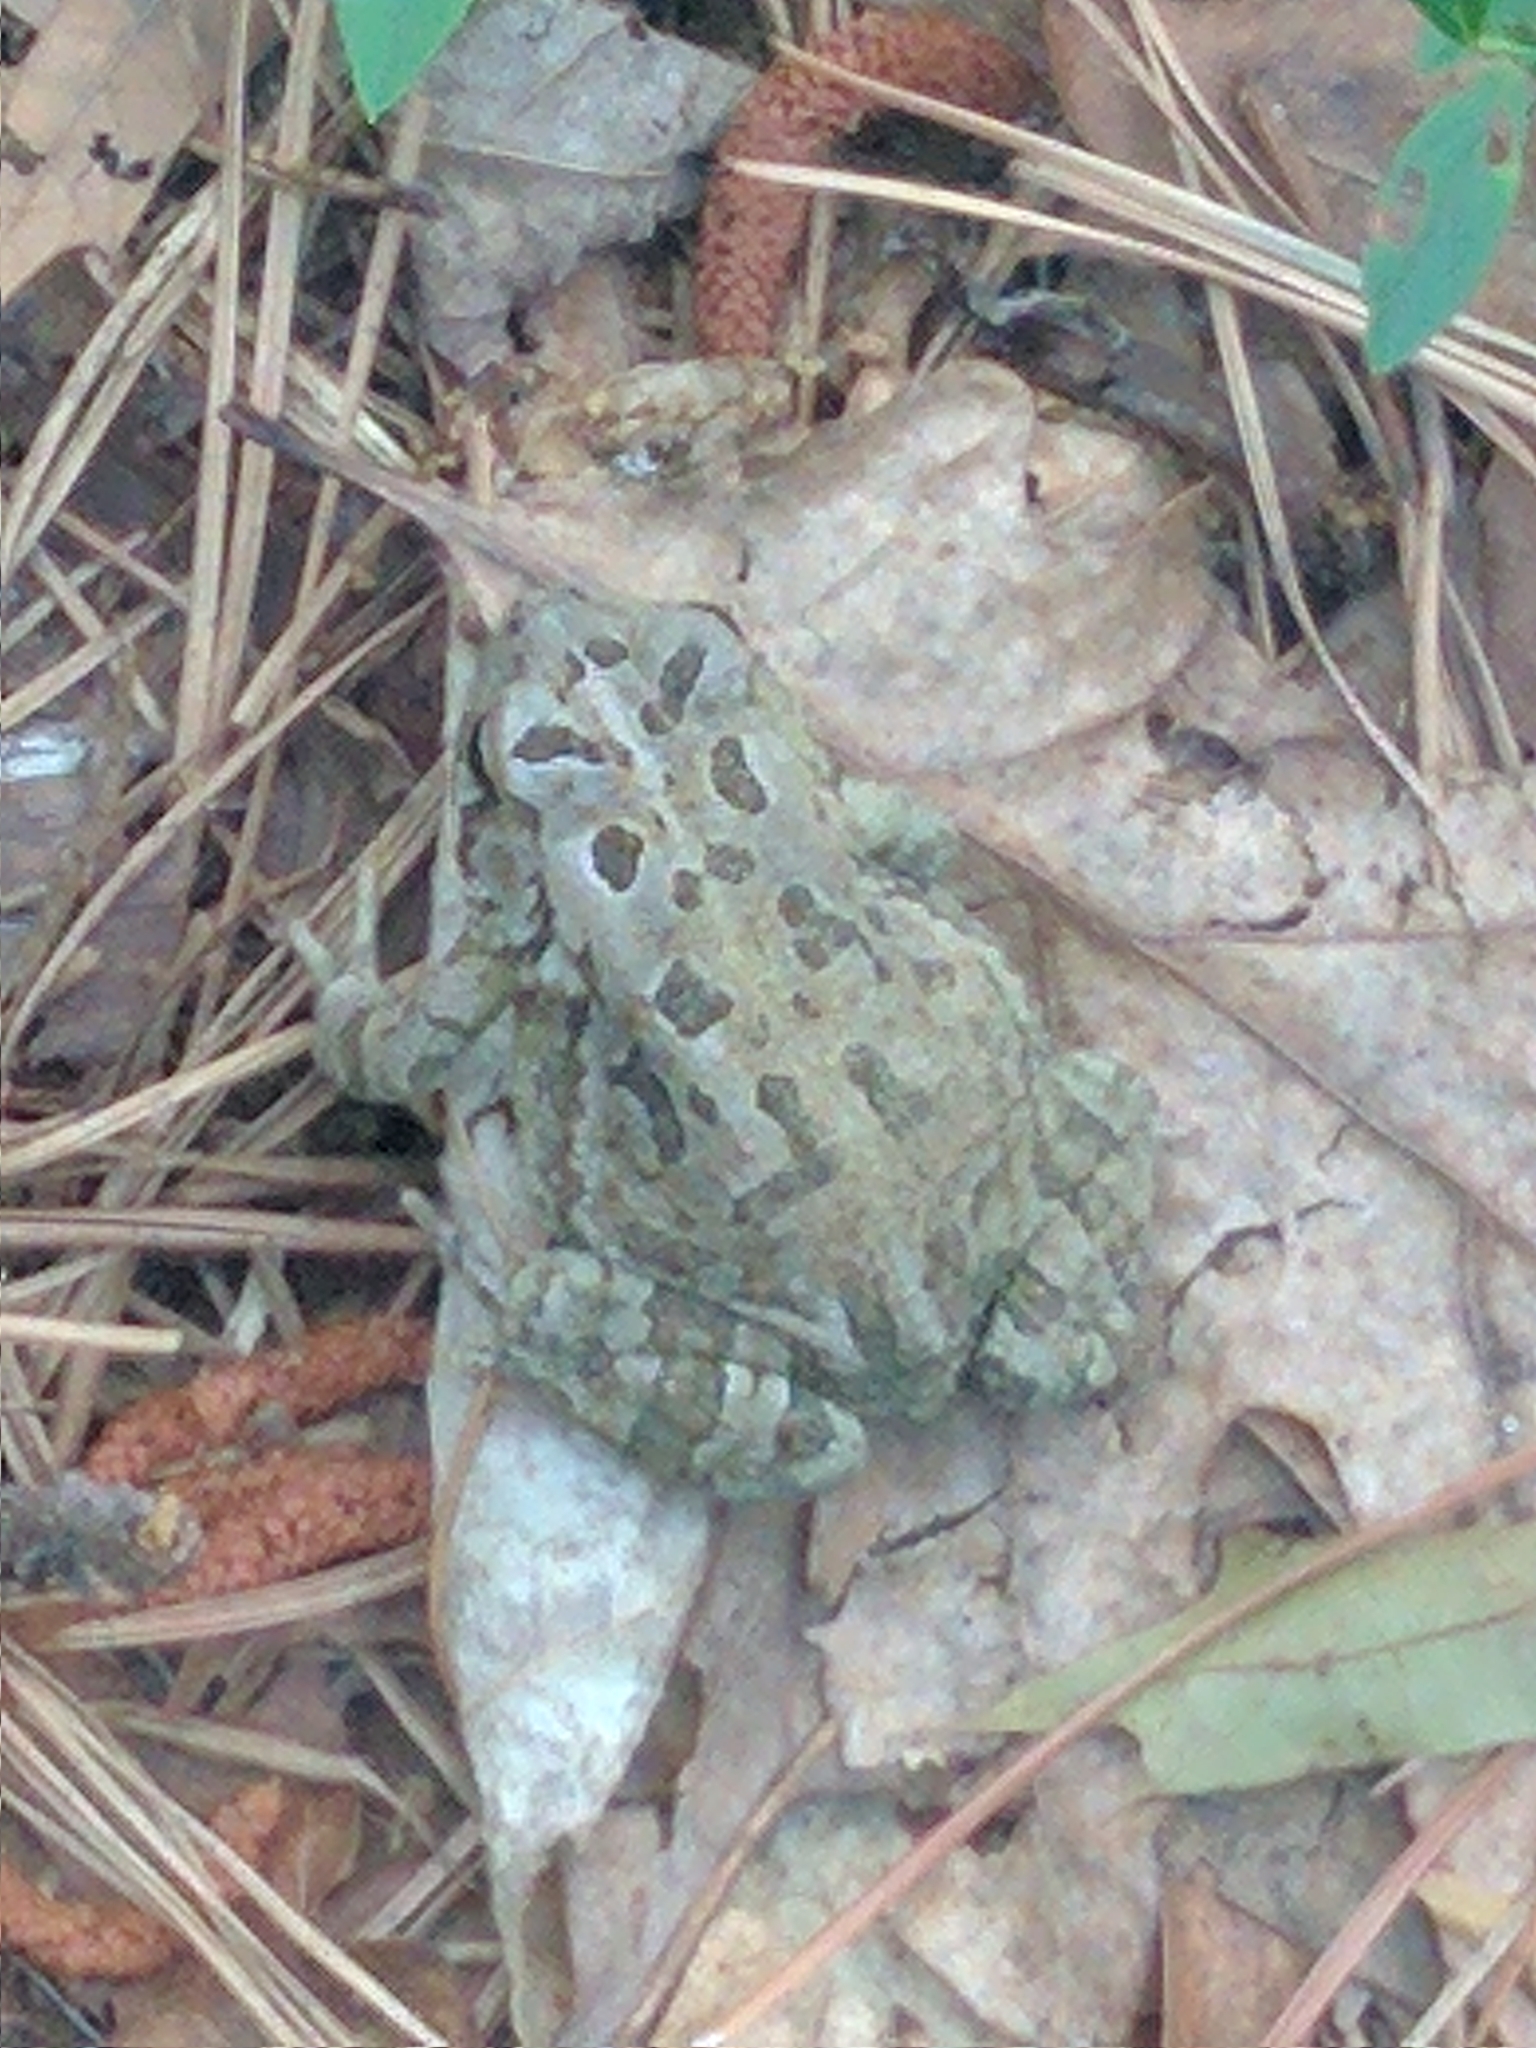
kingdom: Animalia
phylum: Chordata
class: Amphibia
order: Anura
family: Bufonidae
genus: Anaxyrus
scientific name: Anaxyrus fowleri
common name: Fowler's toad
